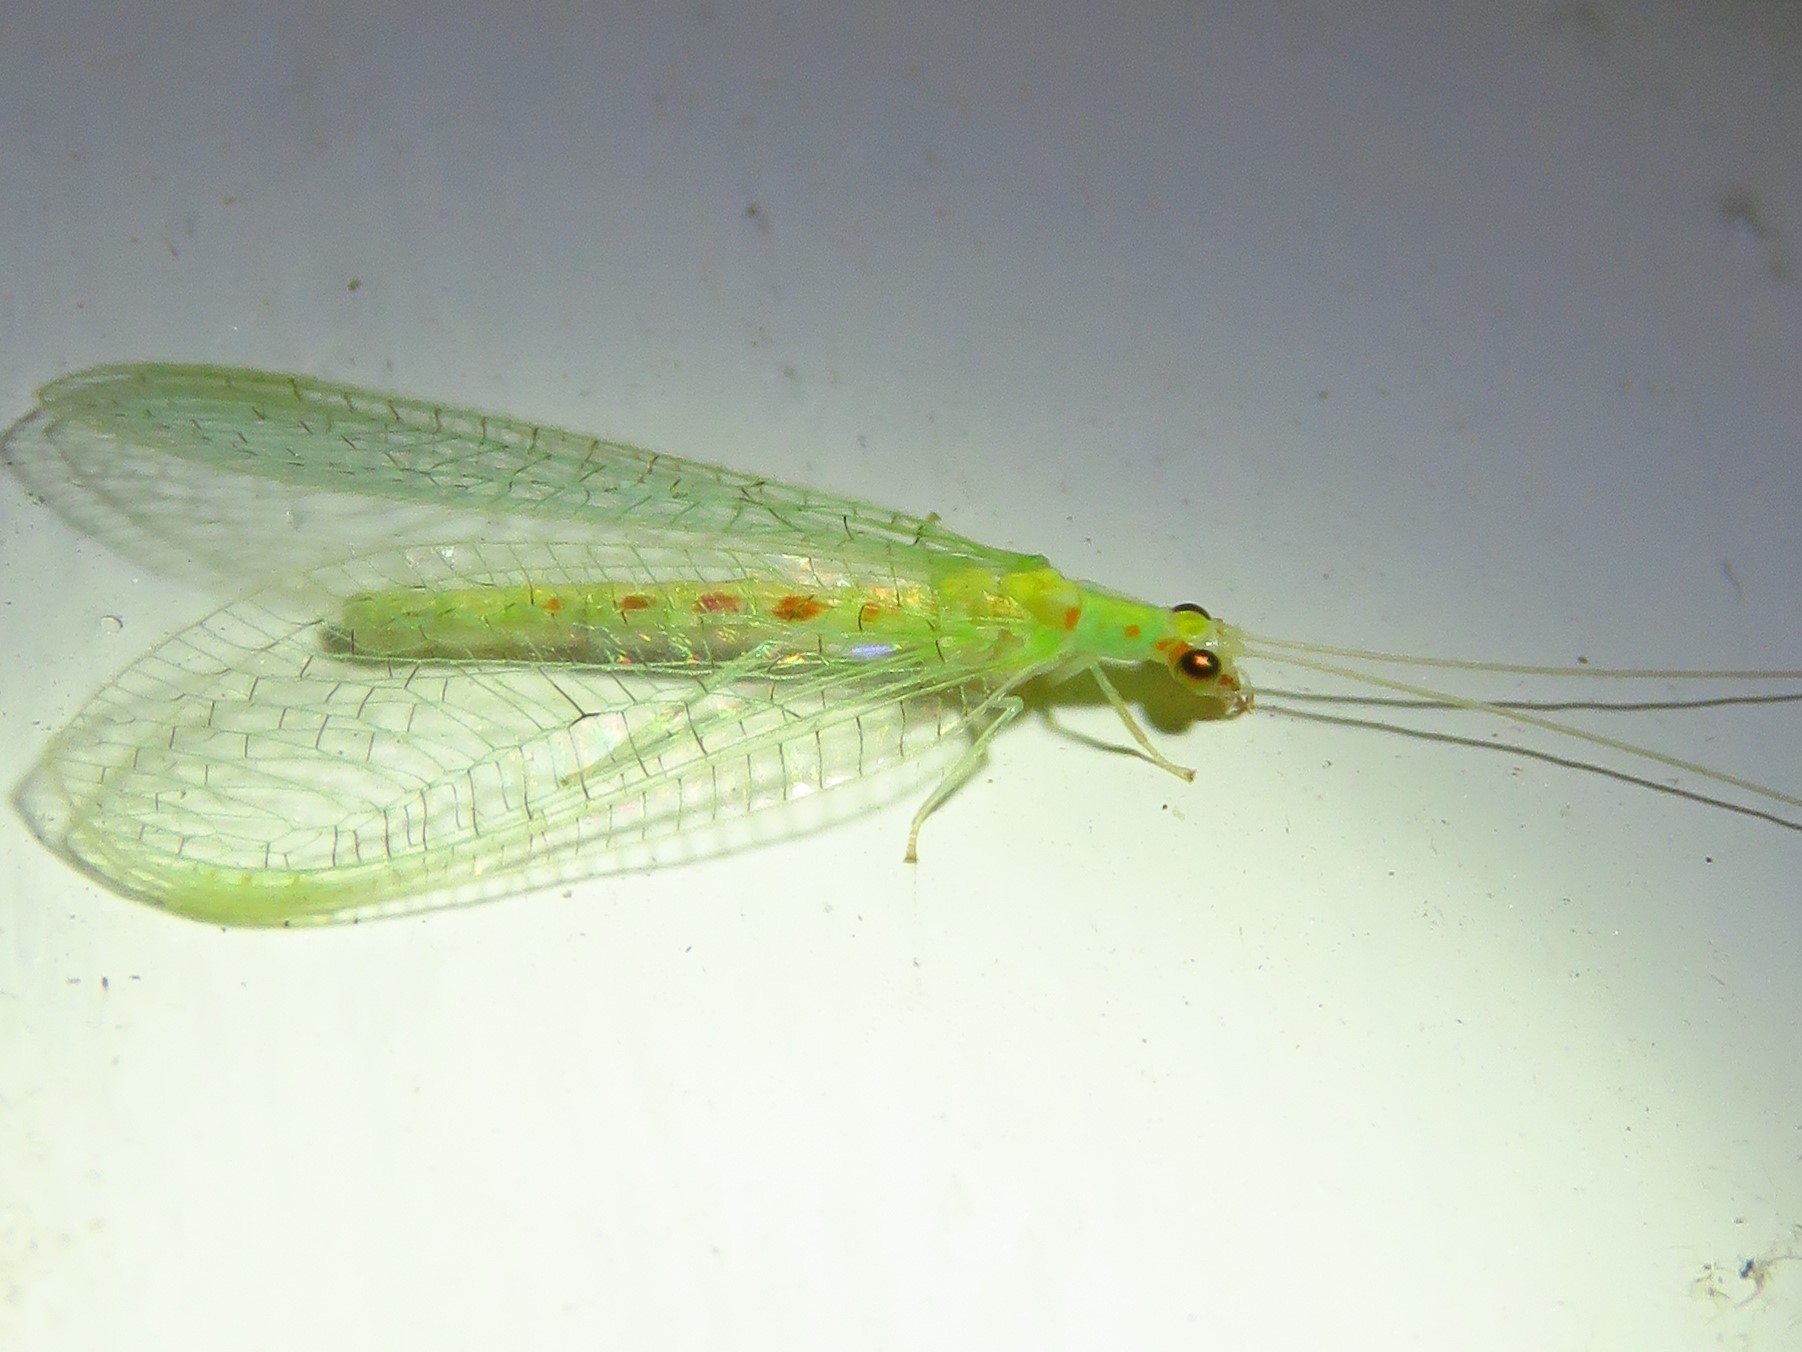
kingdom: Animalia
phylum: Arthropoda
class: Insecta
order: Neuroptera
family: Chrysopidae
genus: Chrysopa
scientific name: Chrysopa quadripunctata
